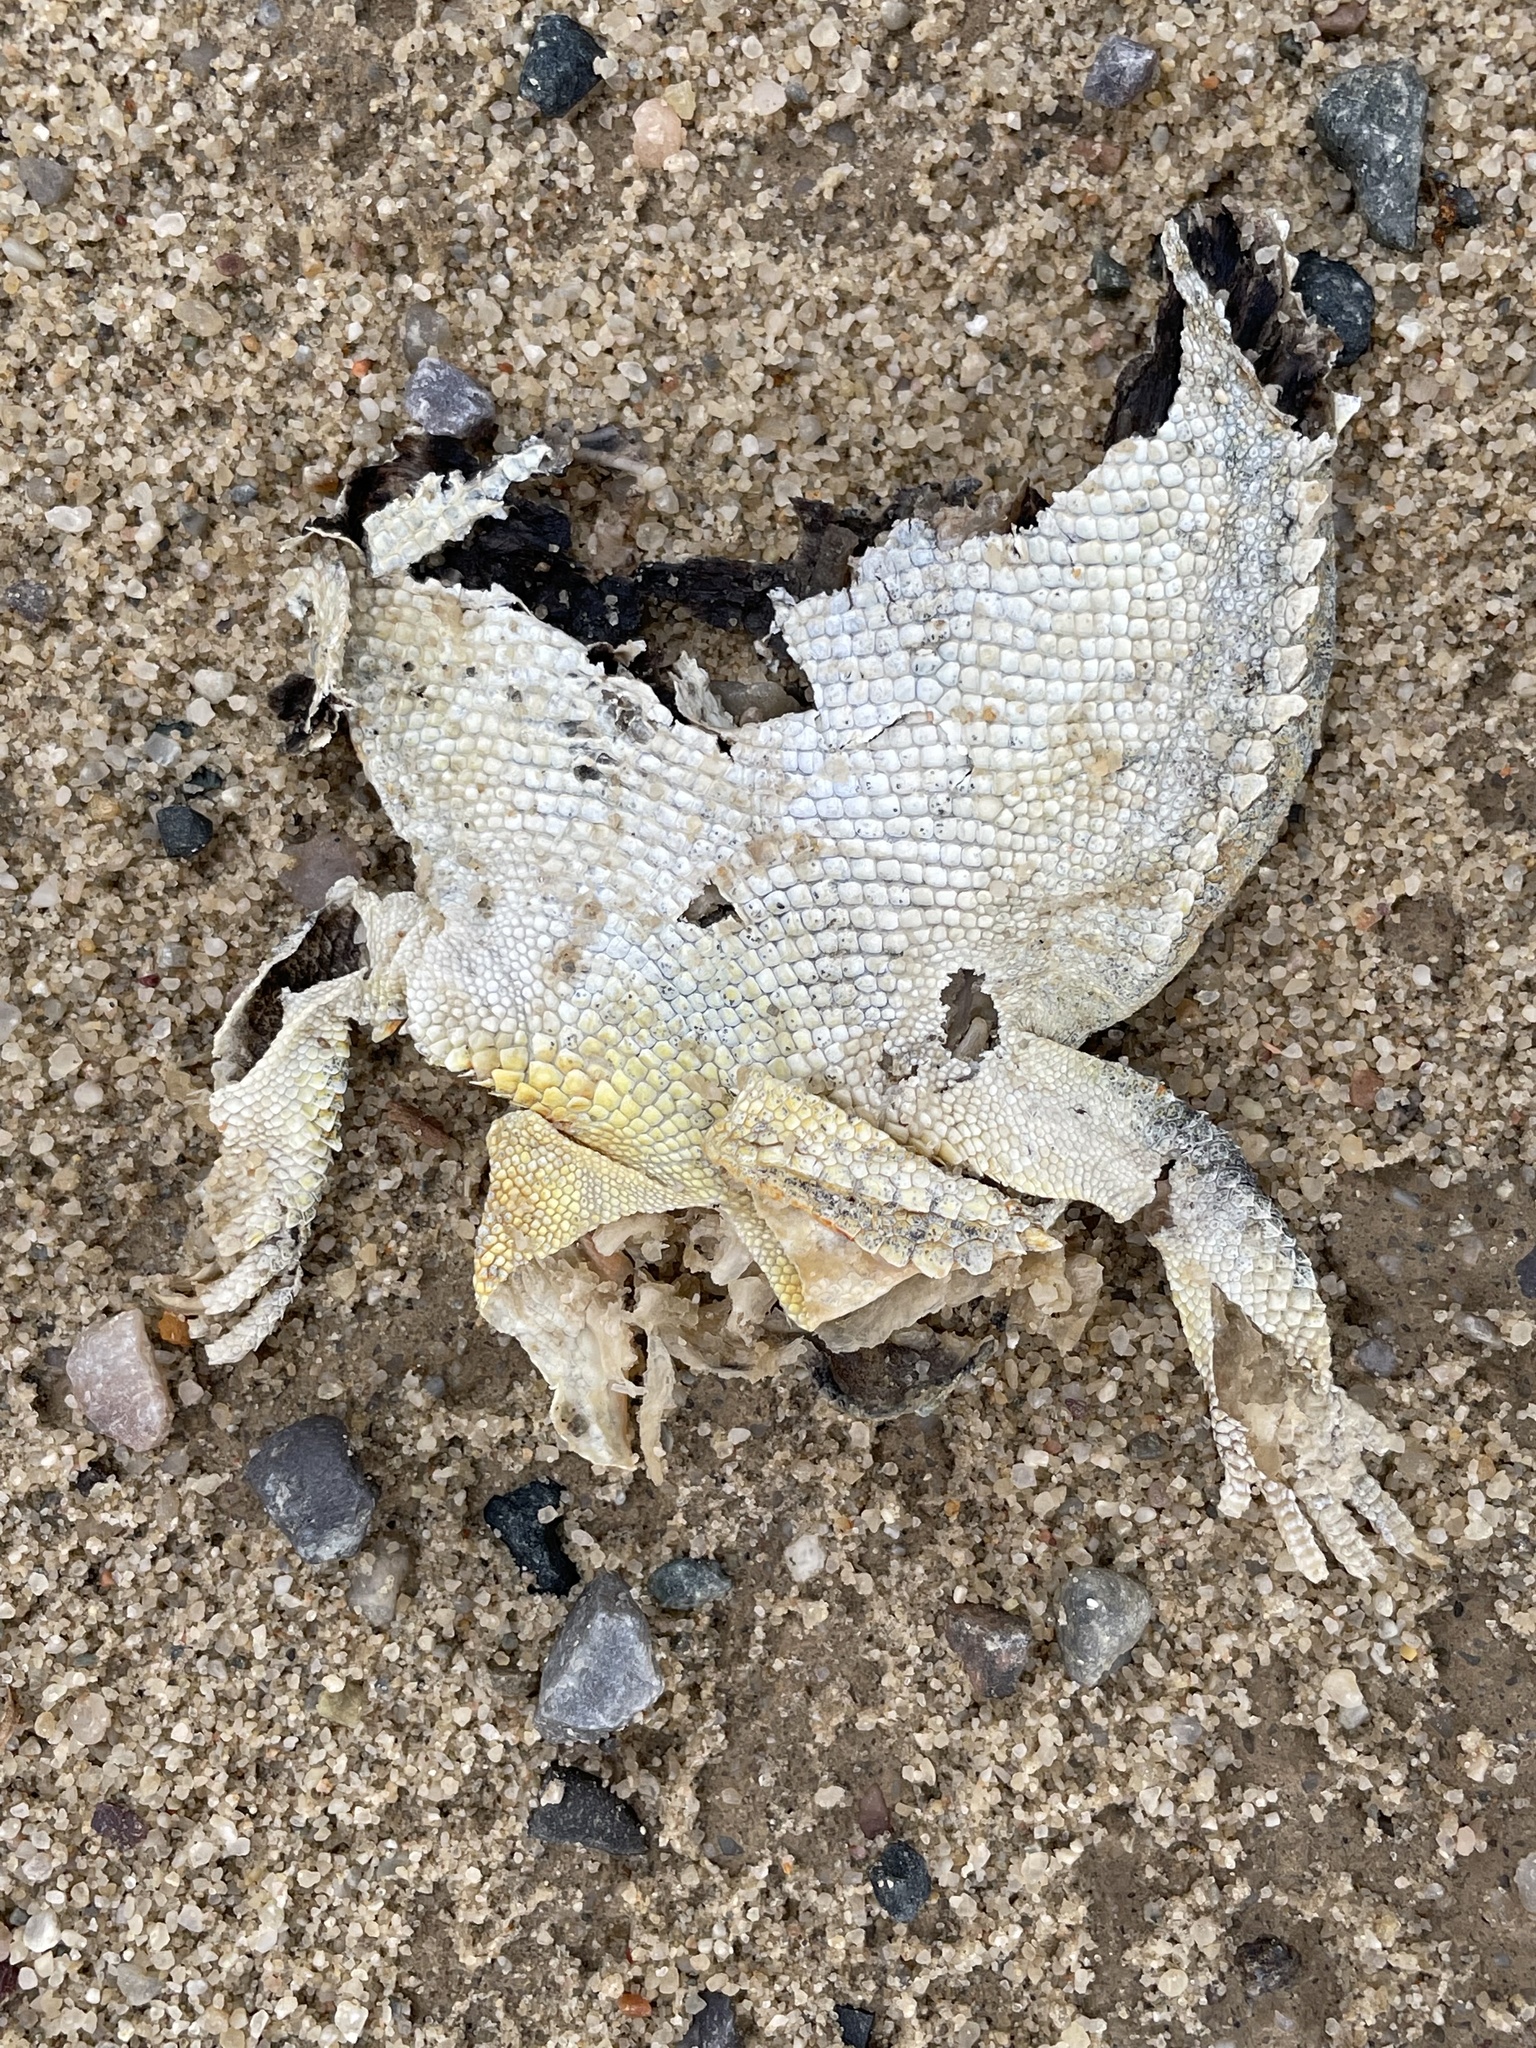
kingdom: Animalia
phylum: Chordata
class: Squamata
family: Phrynosomatidae
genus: Phrynosoma
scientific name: Phrynosoma hernandesi
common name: Greater short-horned lizard
